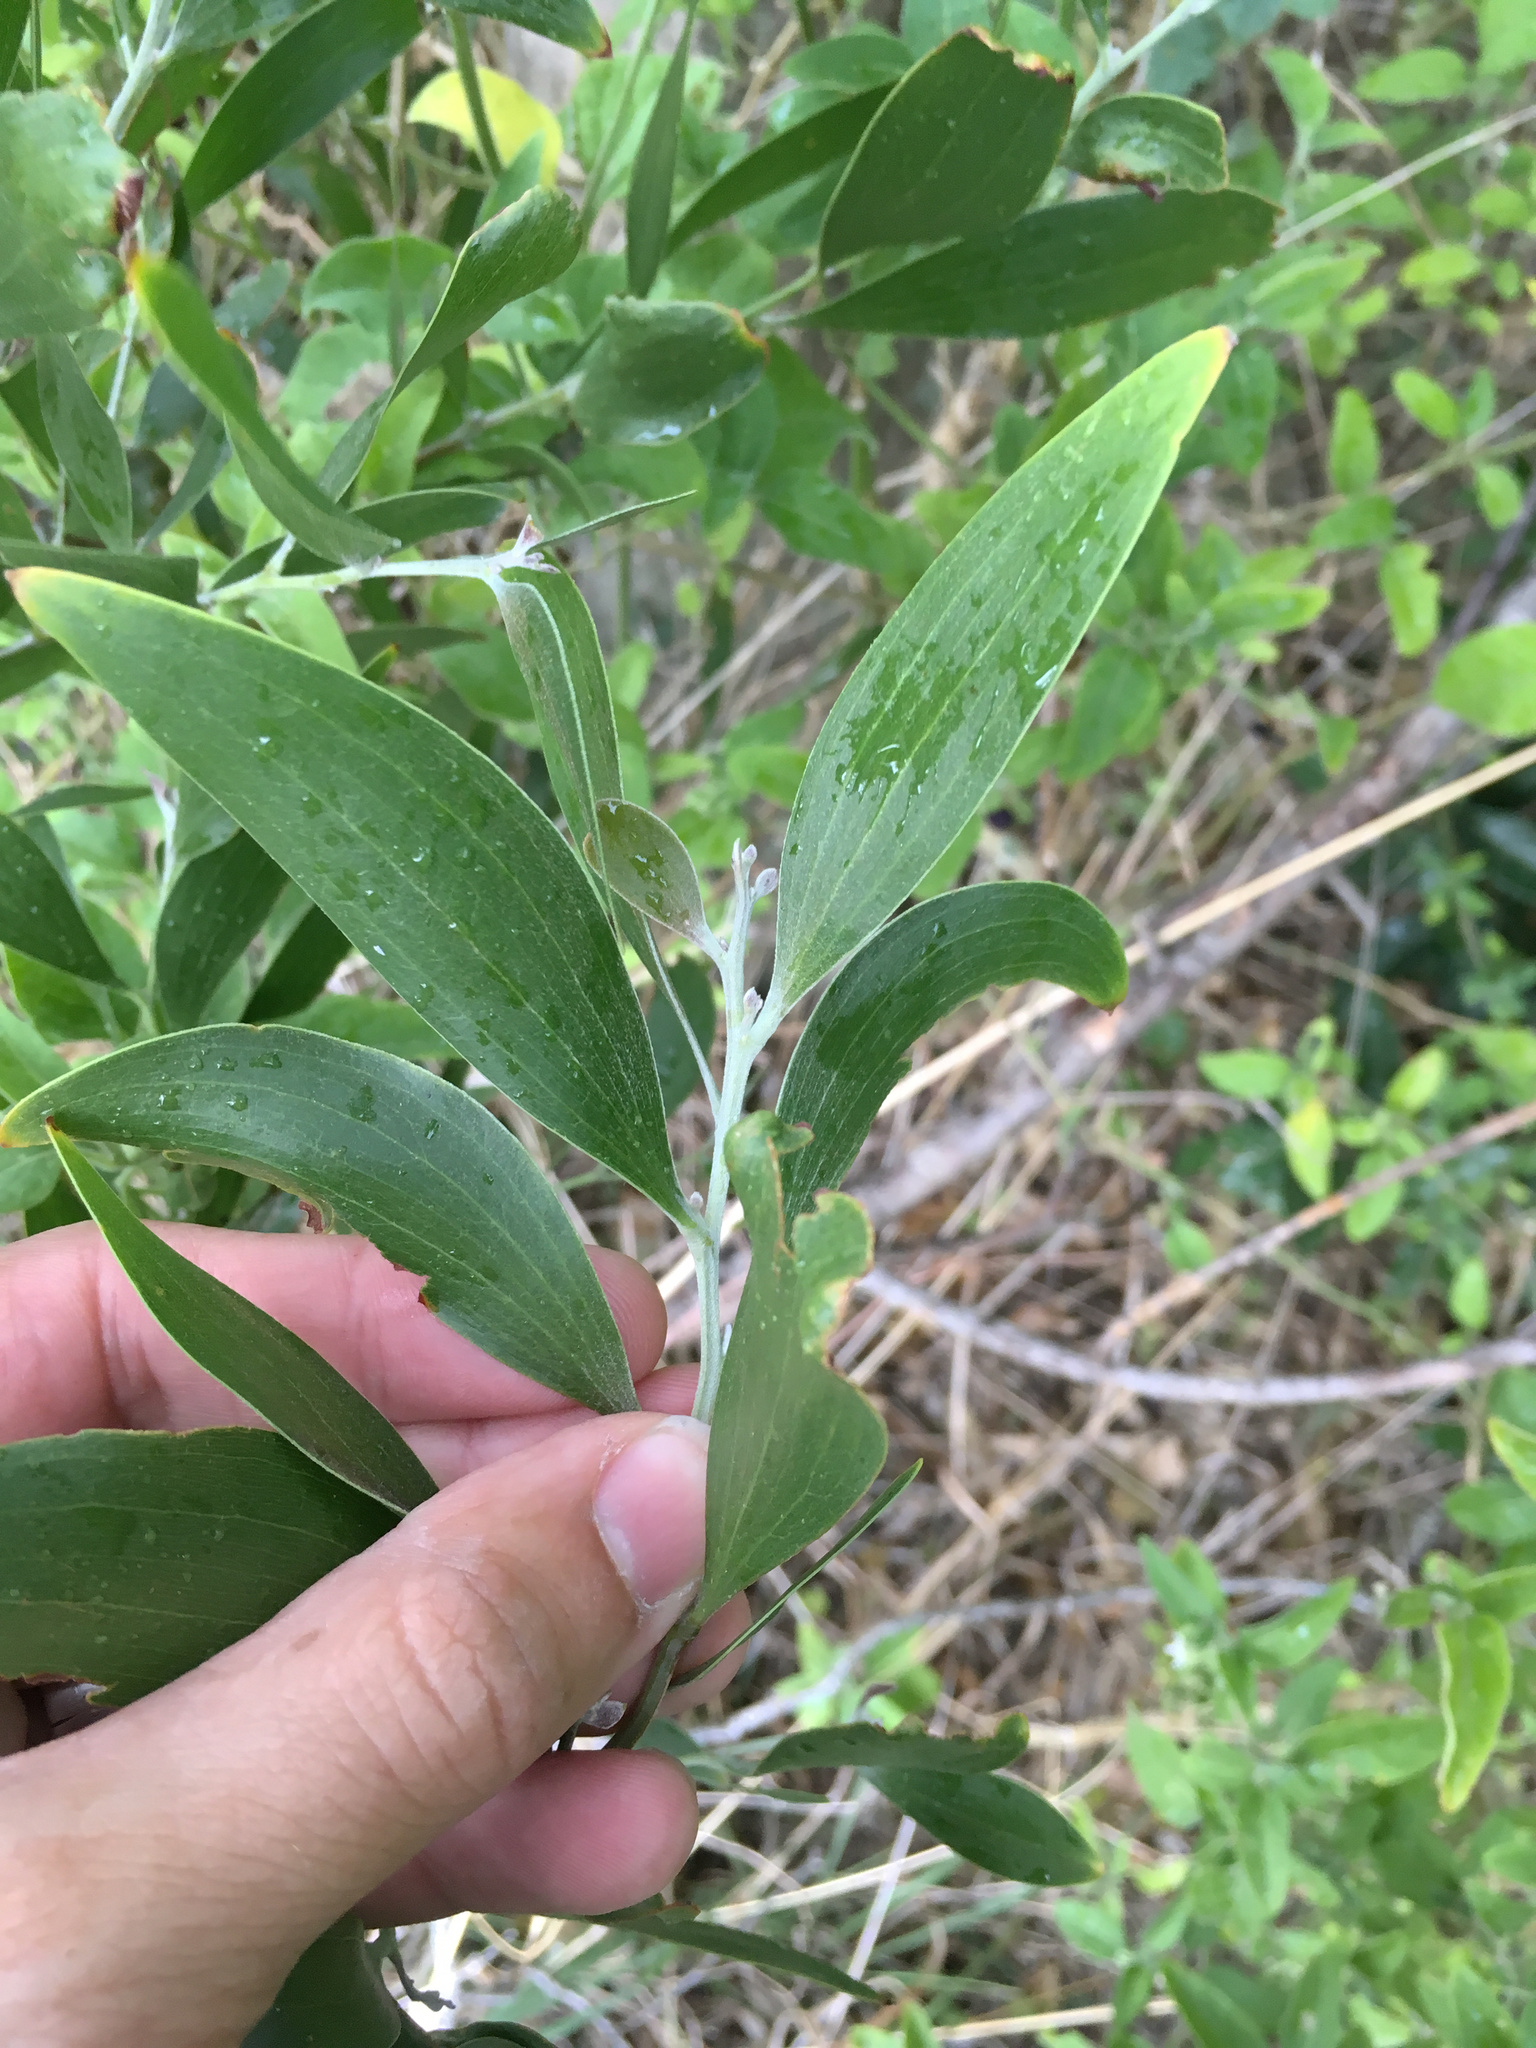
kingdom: Plantae
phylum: Tracheophyta
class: Magnoliopsida
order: Fabales
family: Fabaceae
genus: Acacia
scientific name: Acacia melanoxylon
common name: Blackwood
